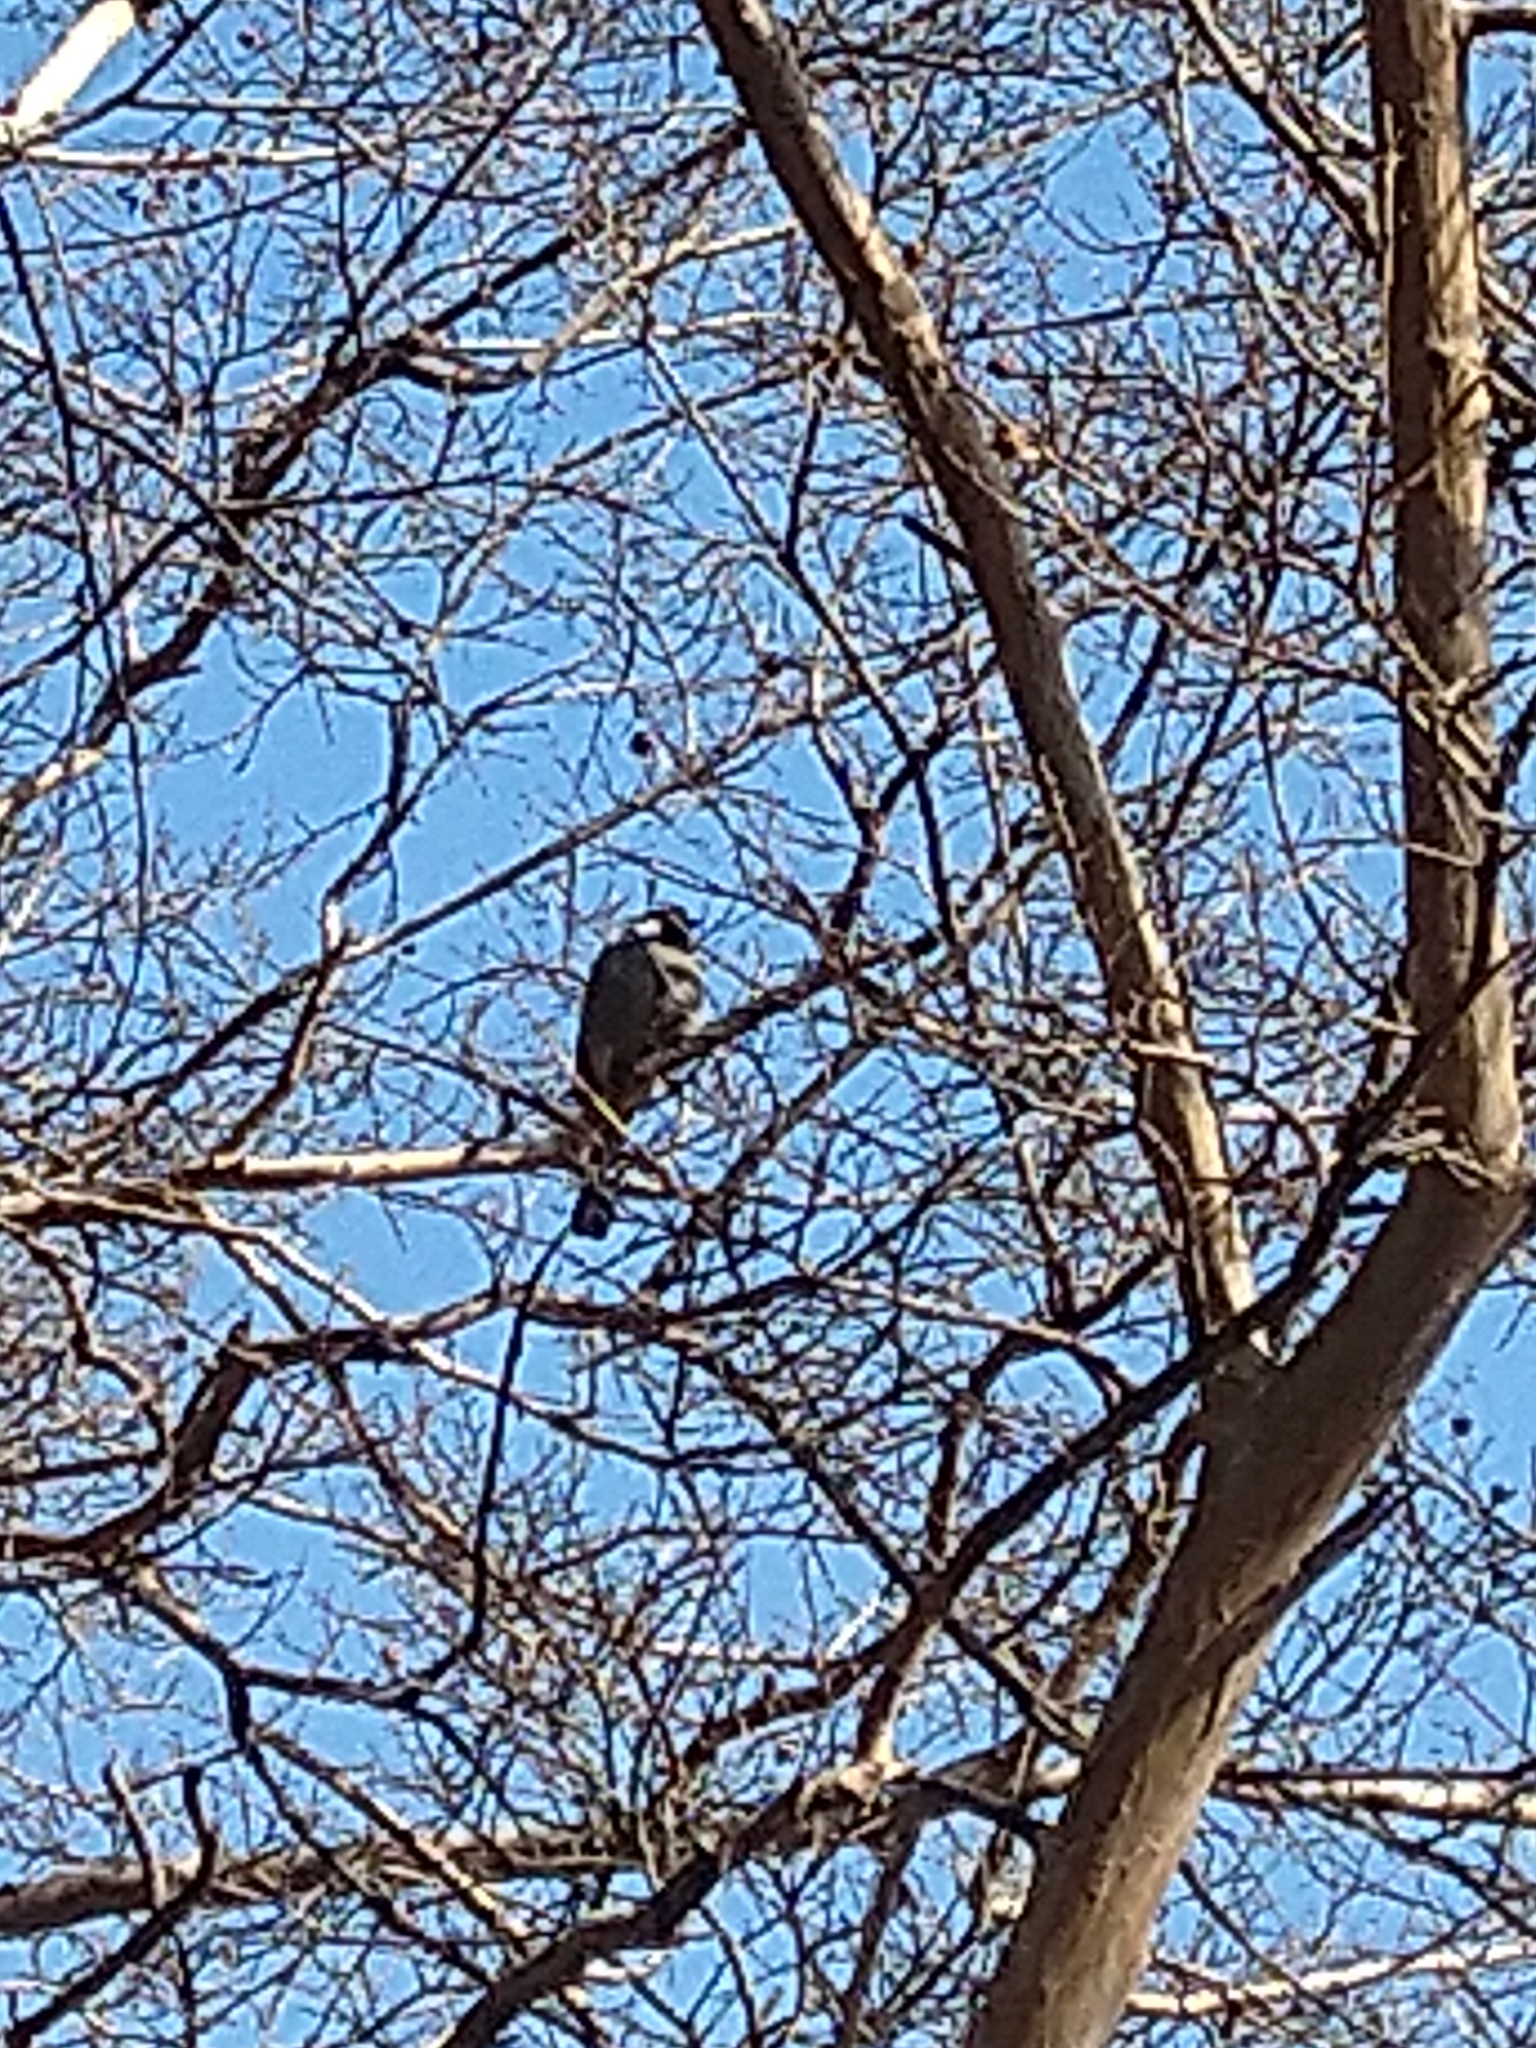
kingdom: Animalia
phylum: Chordata
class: Aves
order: Passeriformes
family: Pycnonotidae
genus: Pycnonotus
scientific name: Pycnonotus leucotis
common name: White-eared bulbul
